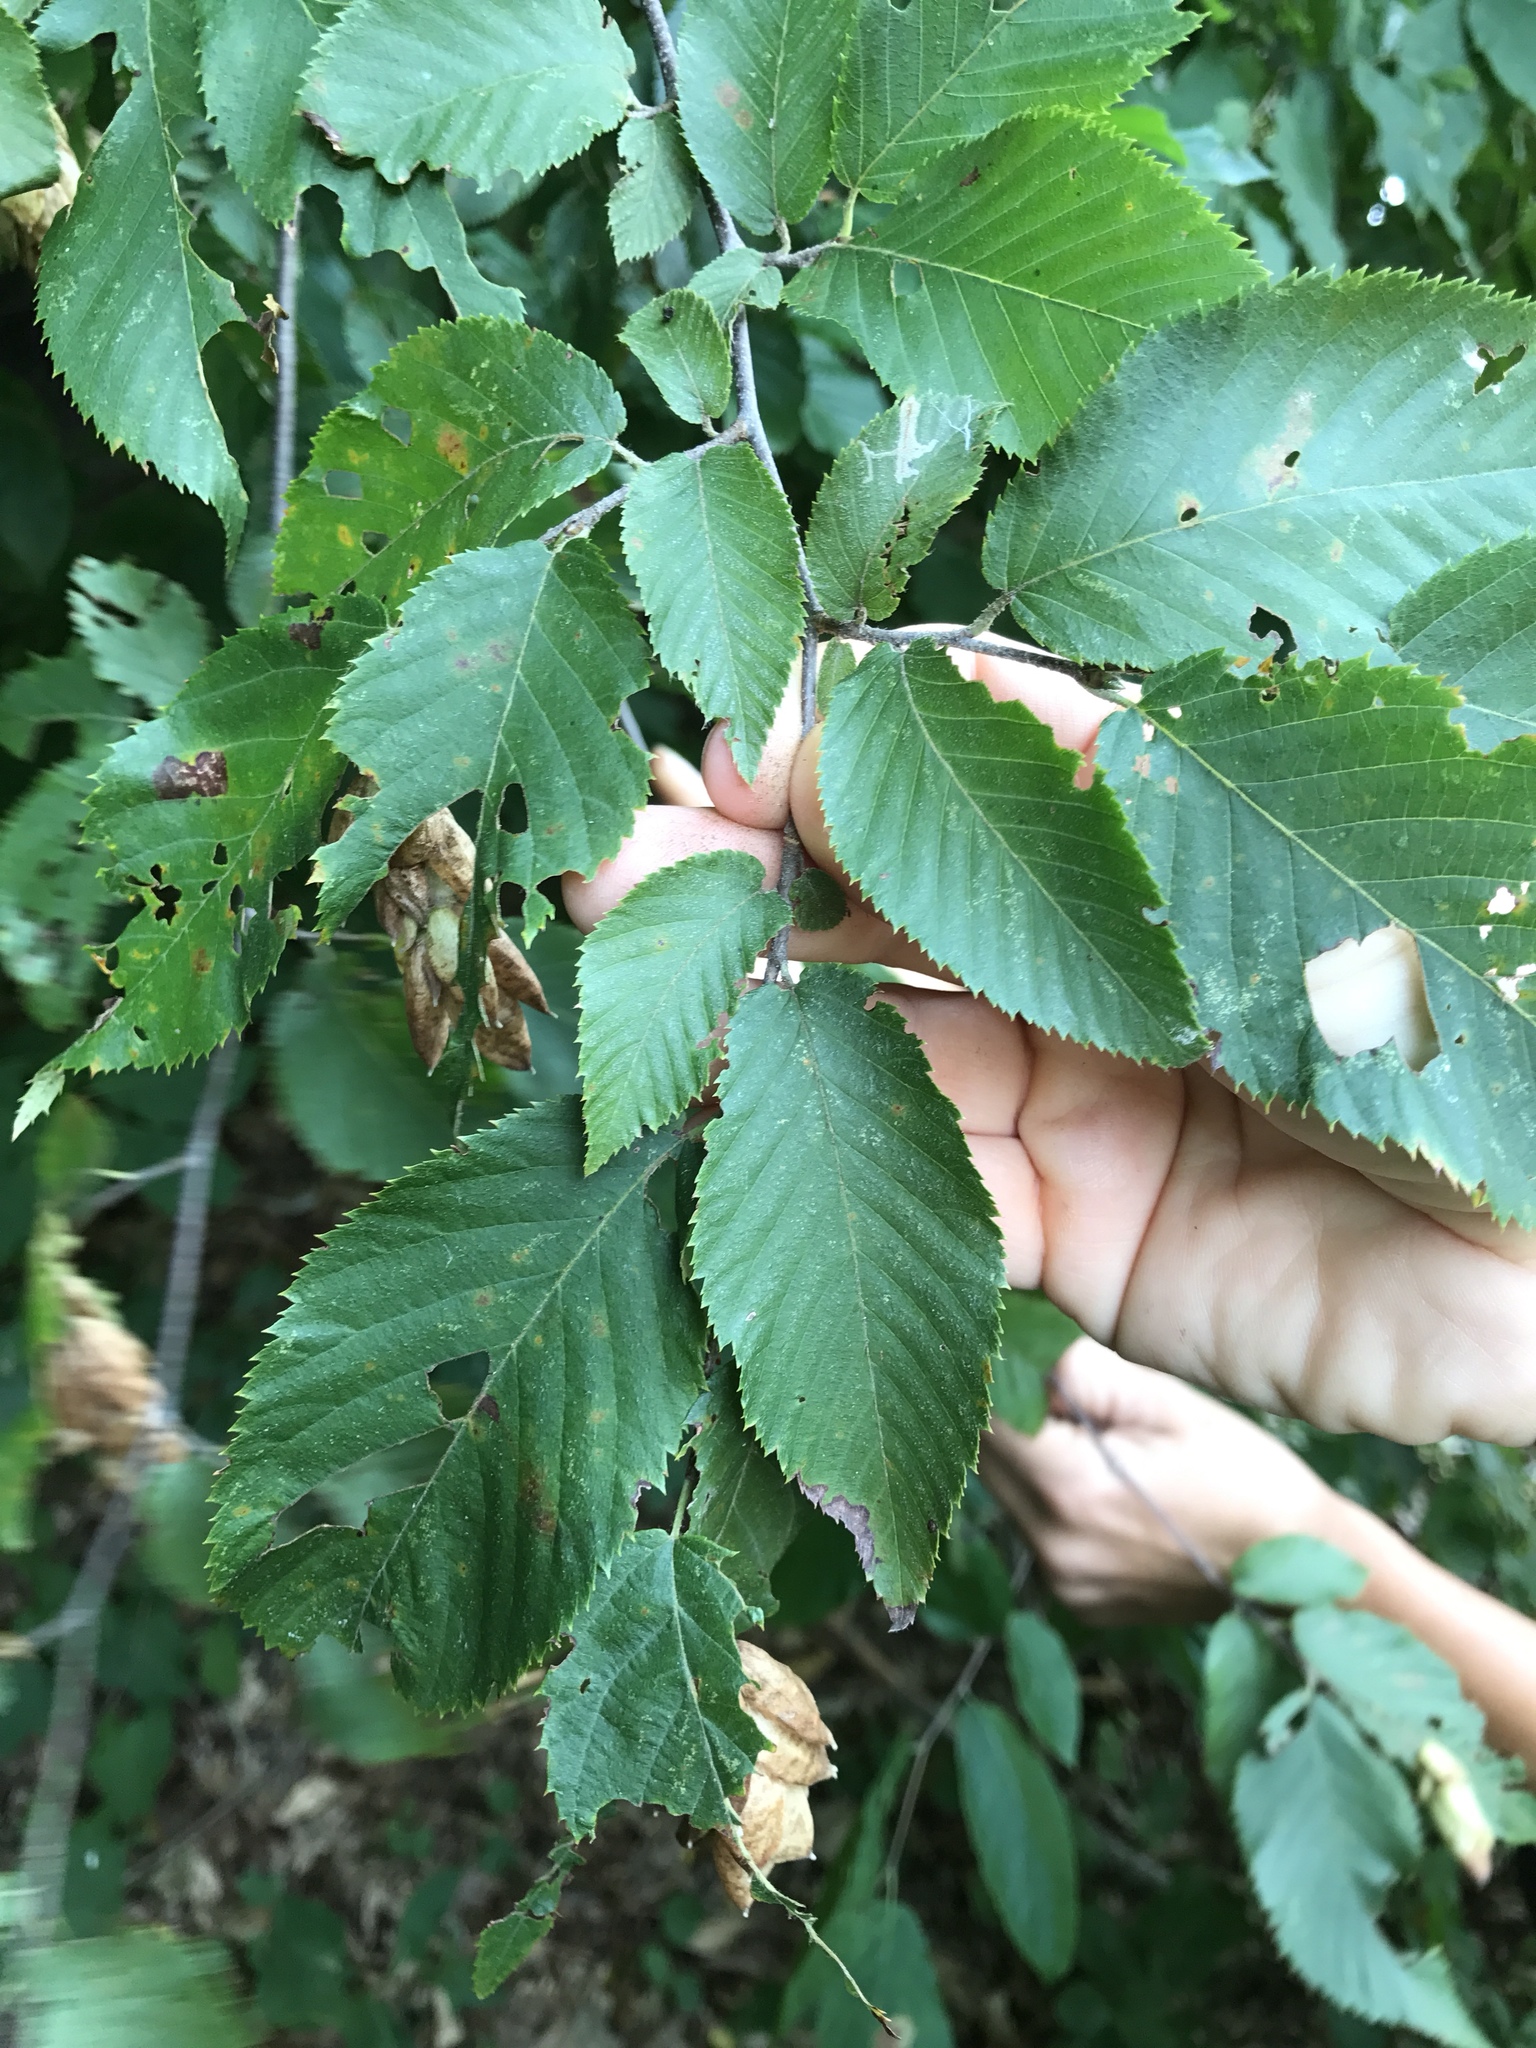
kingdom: Plantae
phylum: Tracheophyta
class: Magnoliopsida
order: Fagales
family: Betulaceae
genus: Ostrya
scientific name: Ostrya virginiana
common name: Ironwood
